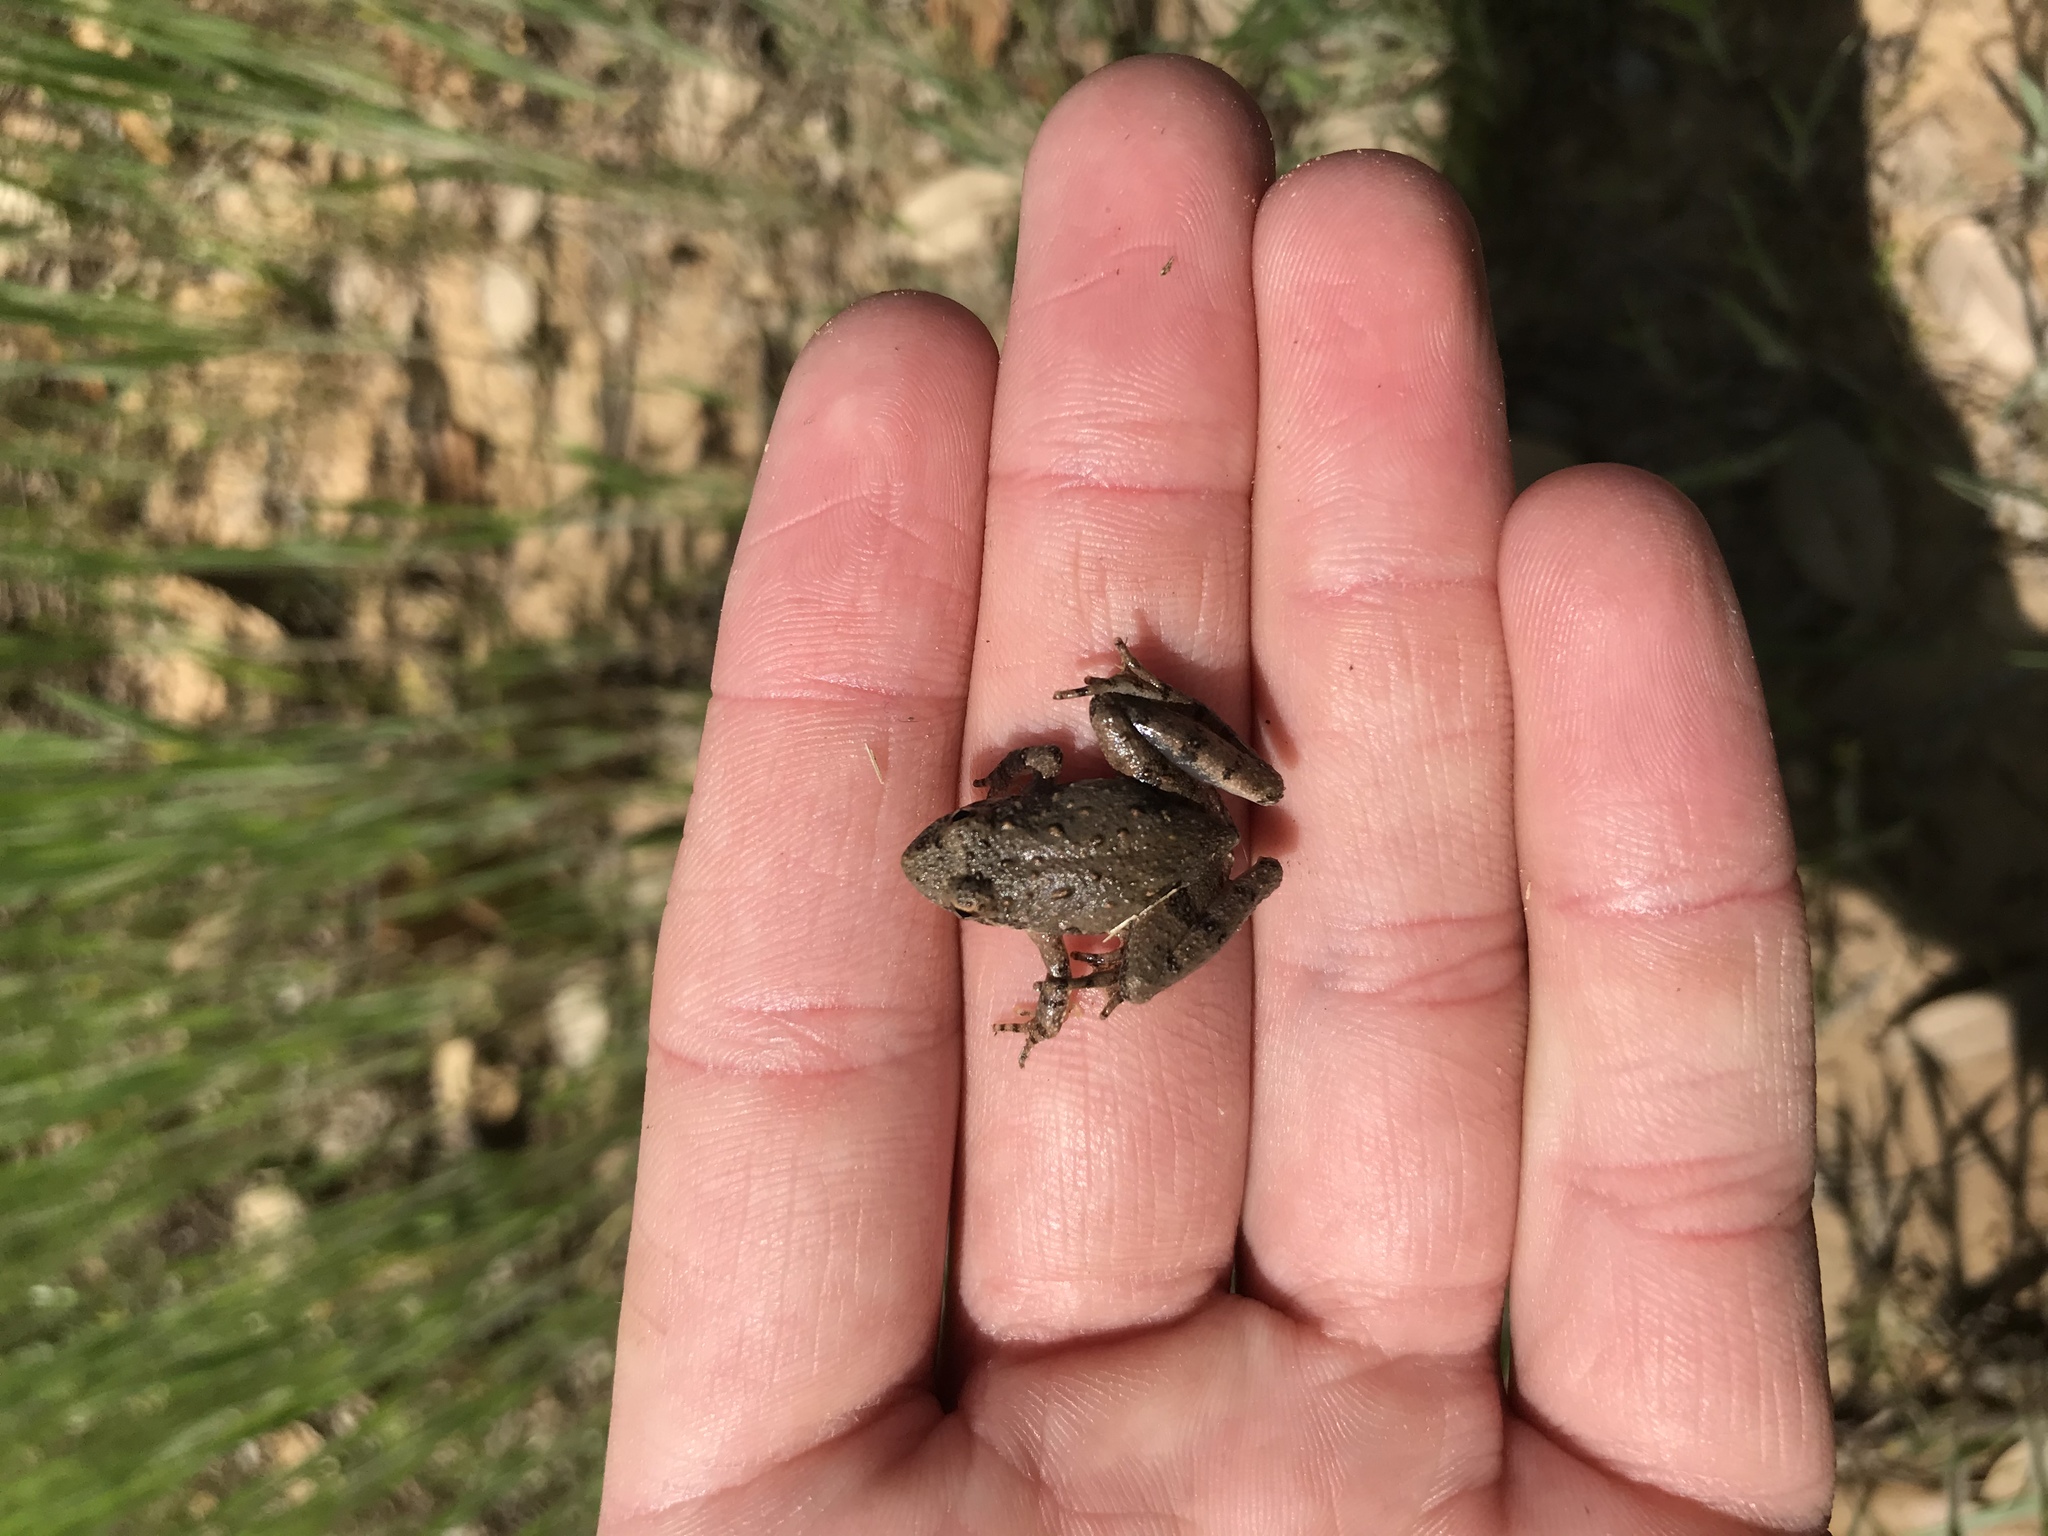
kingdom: Animalia
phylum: Chordata
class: Amphibia
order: Anura
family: Hylidae
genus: Acris
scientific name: Acris blanchardi
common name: Blanchard's cricket frog
